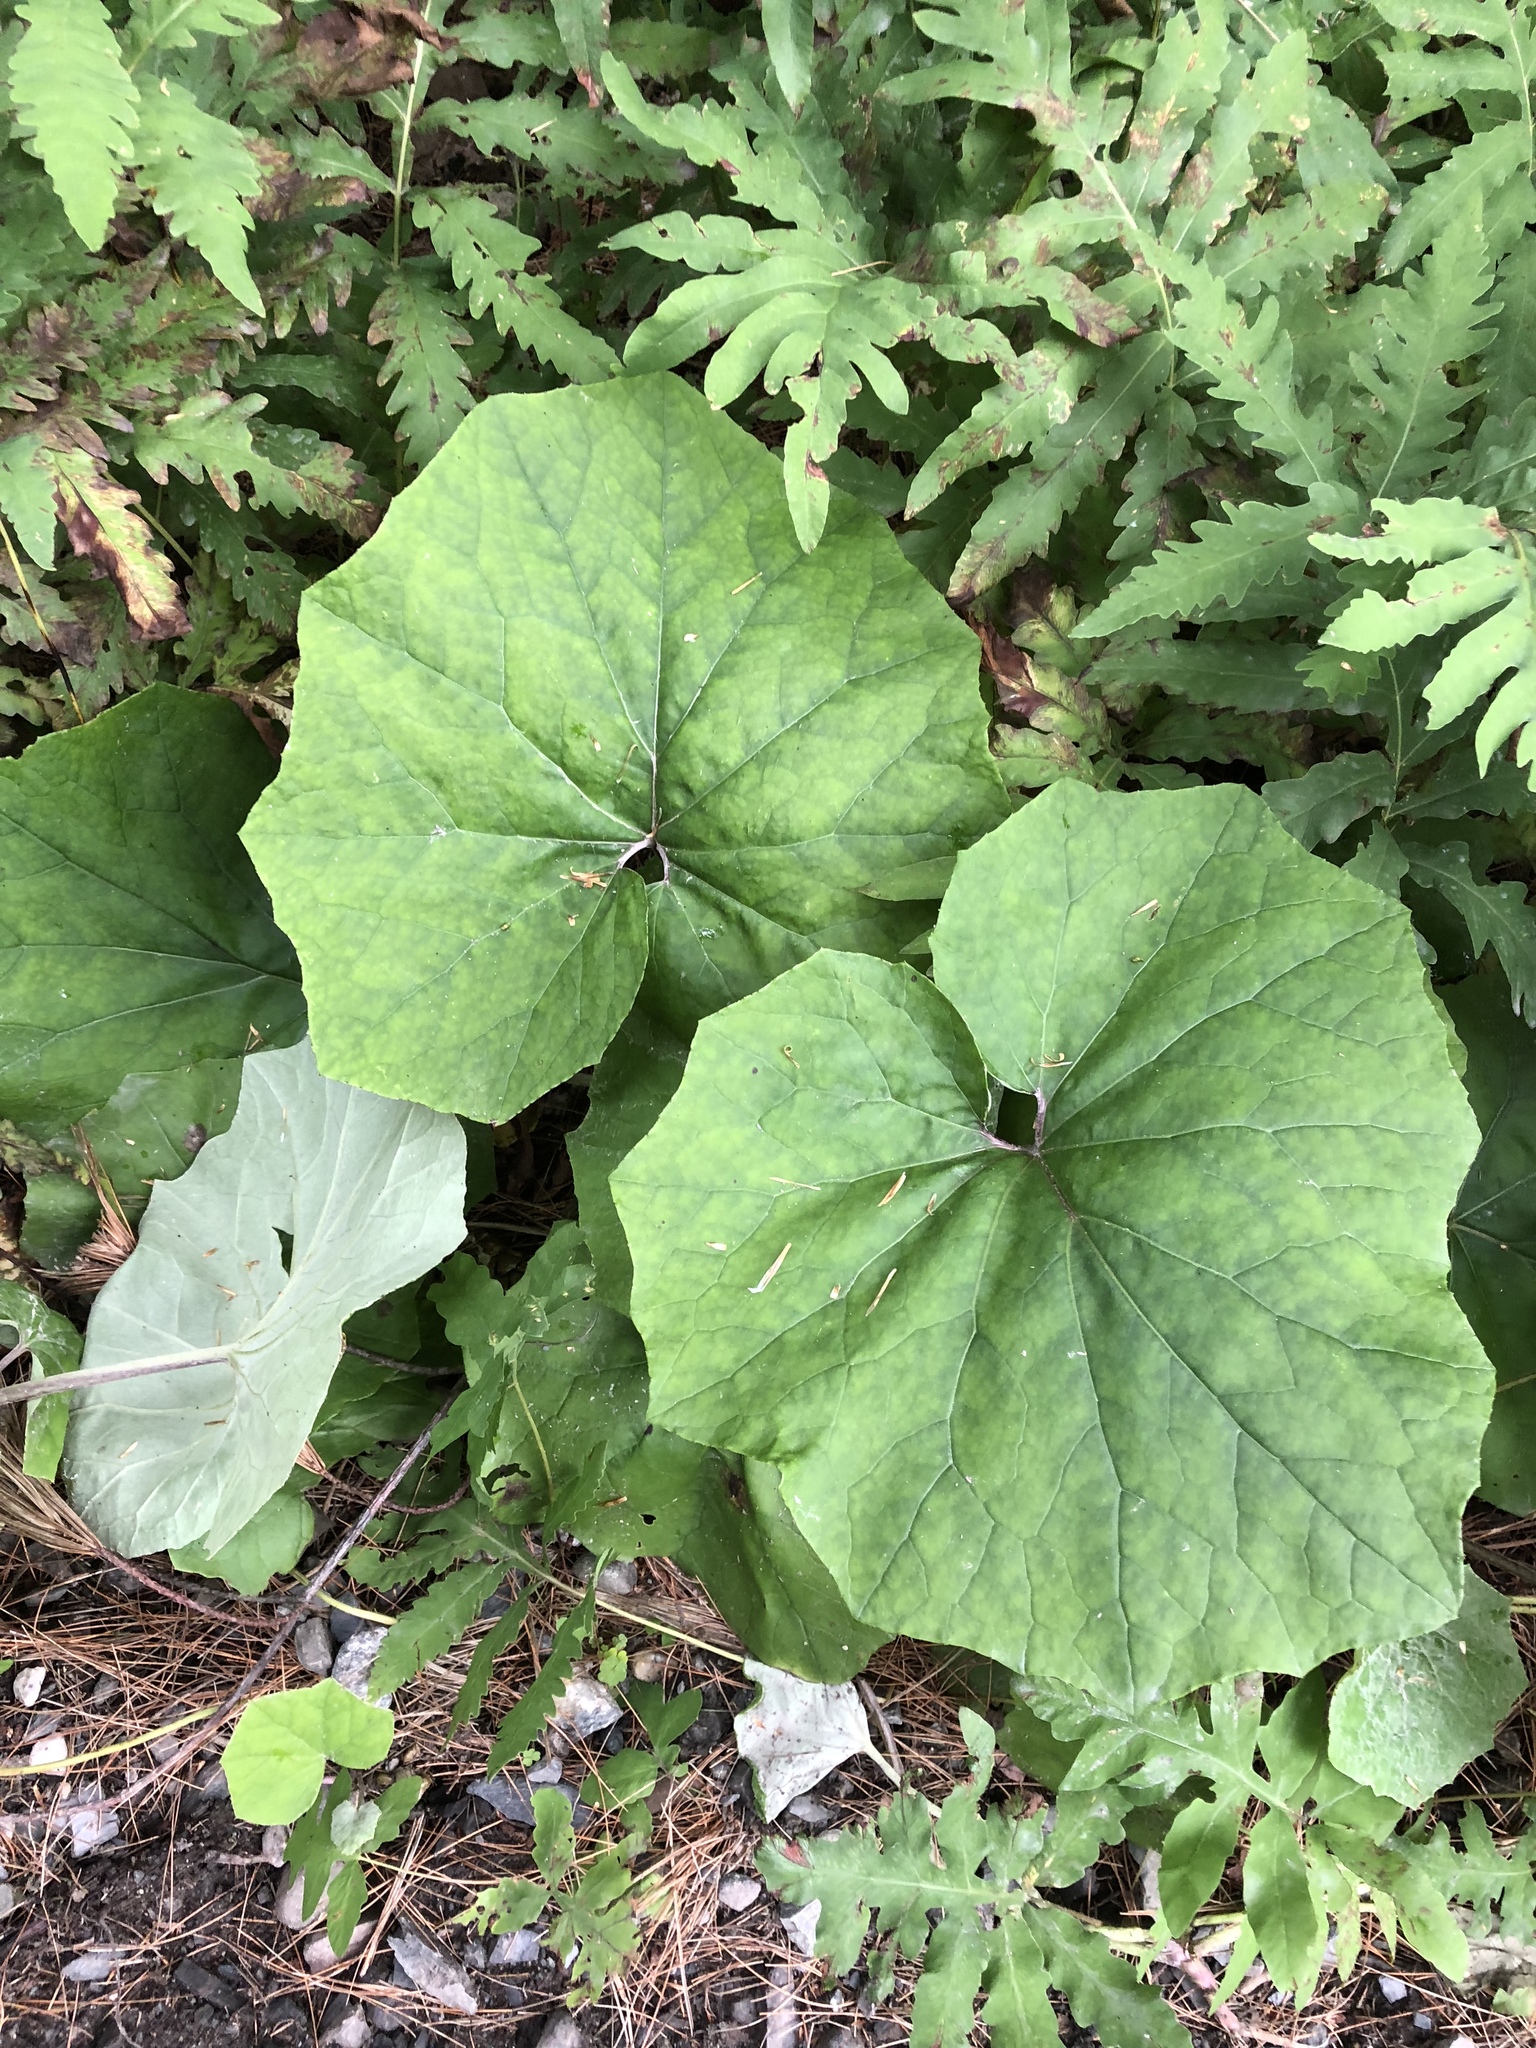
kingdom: Plantae
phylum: Tracheophyta
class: Magnoliopsida
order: Asterales
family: Asteraceae
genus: Tussilago
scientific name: Tussilago farfara
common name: Coltsfoot
